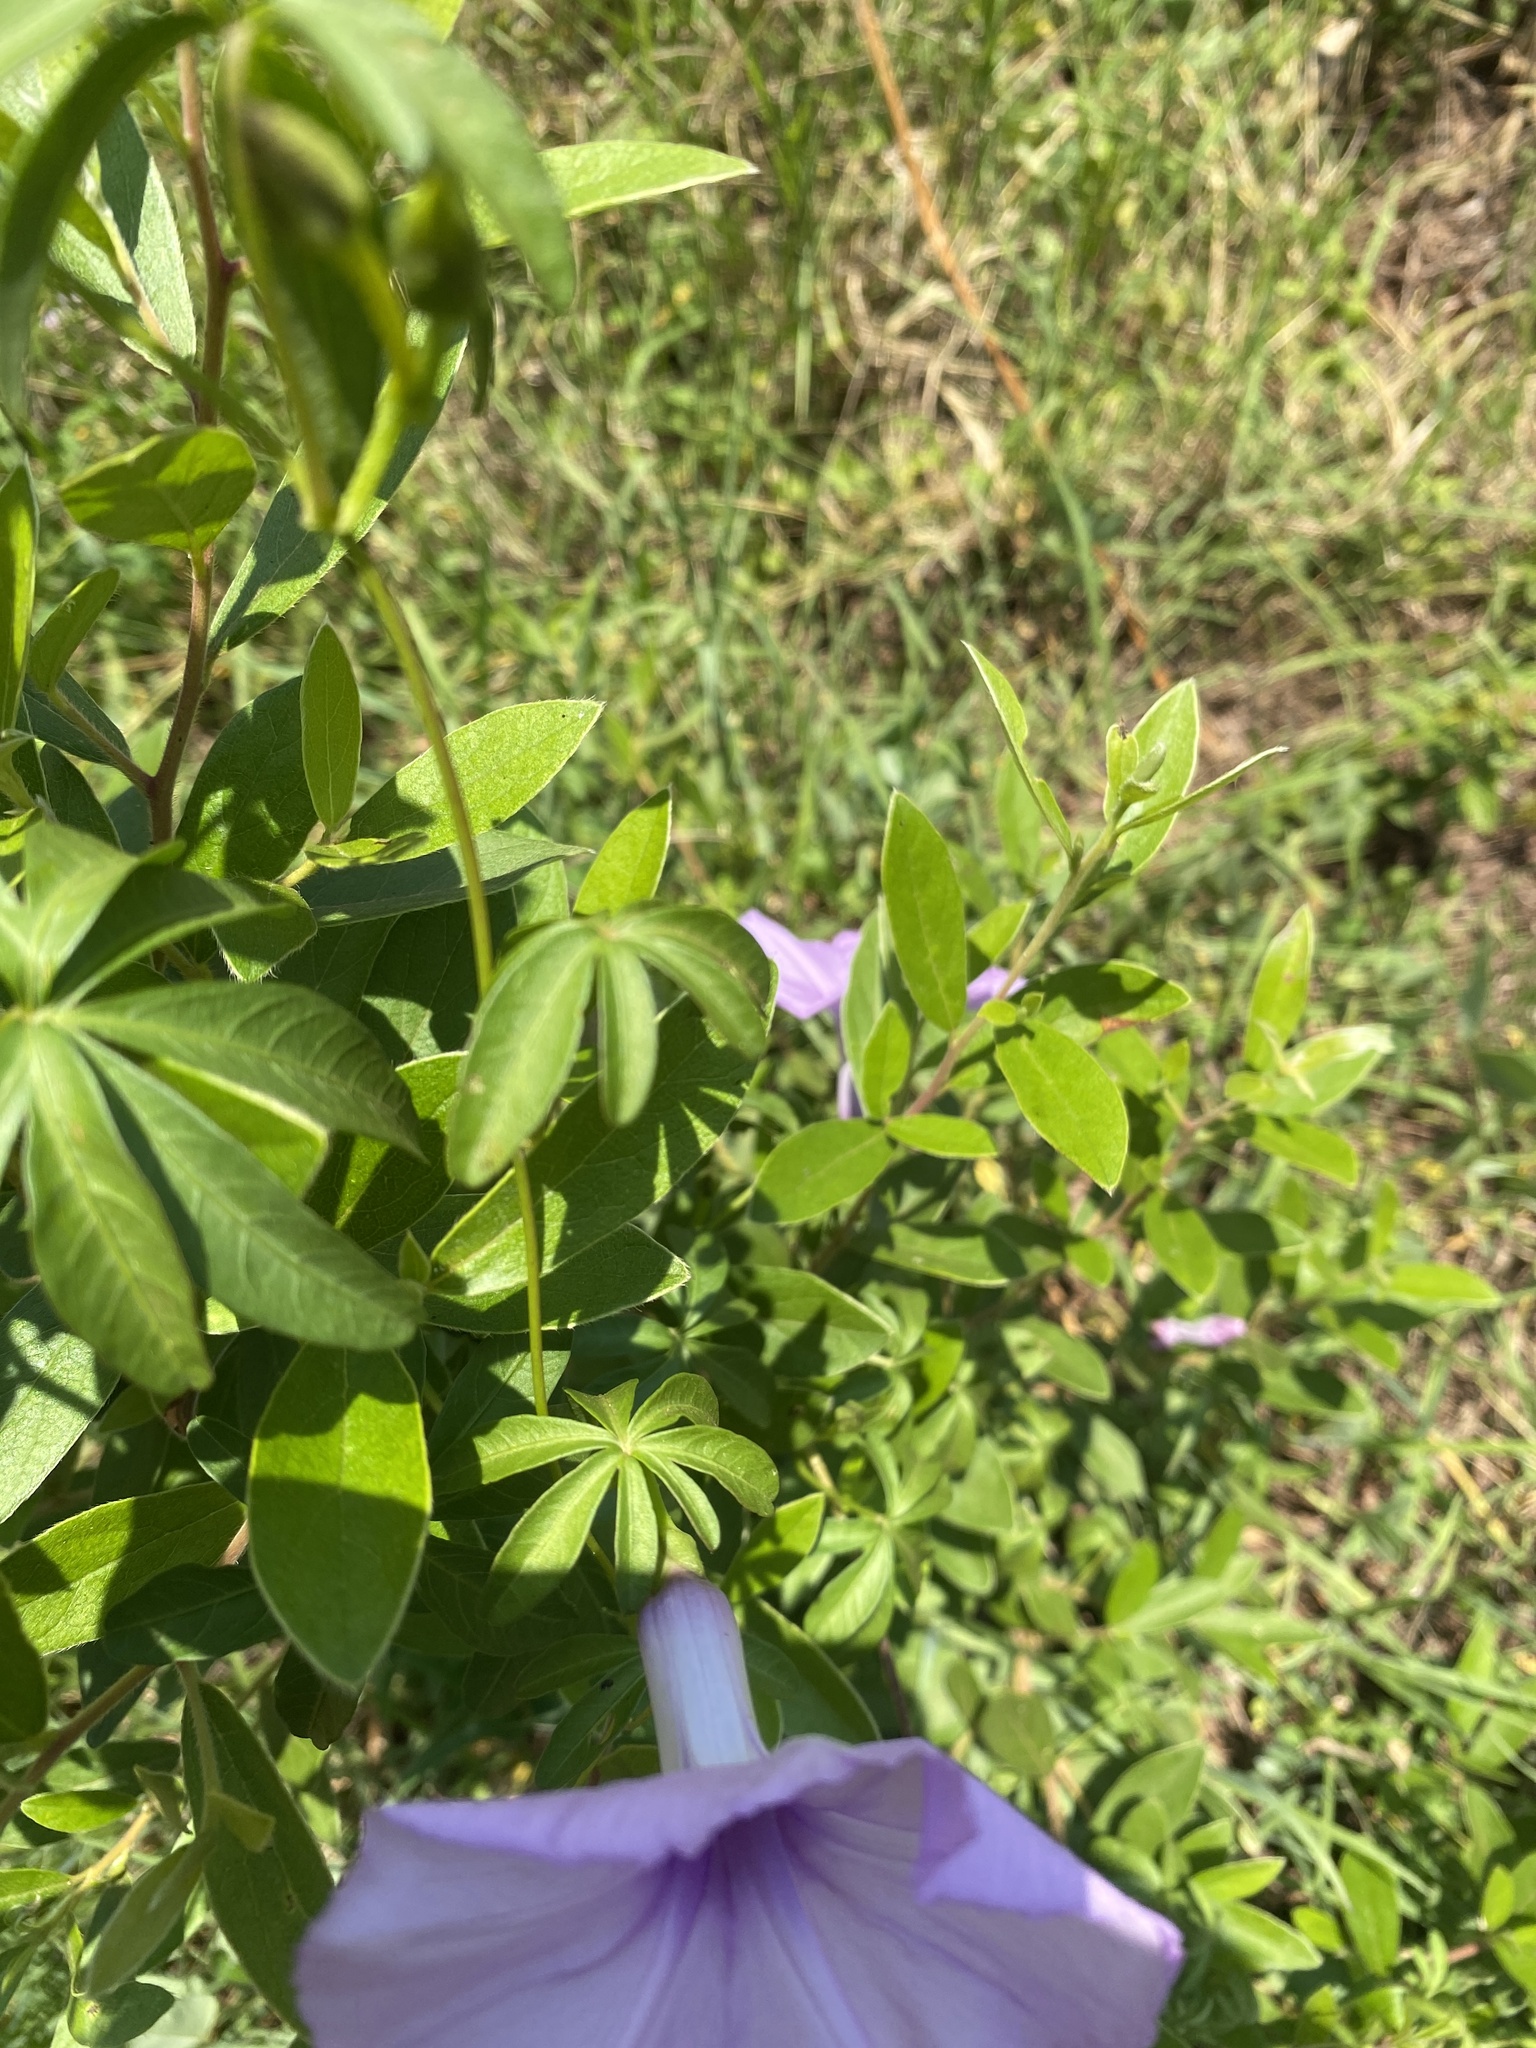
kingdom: Plantae
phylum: Tracheophyta
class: Magnoliopsida
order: Solanales
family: Convolvulaceae
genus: Ipomoea
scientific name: Ipomoea cairica
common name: Mile a minute vine
